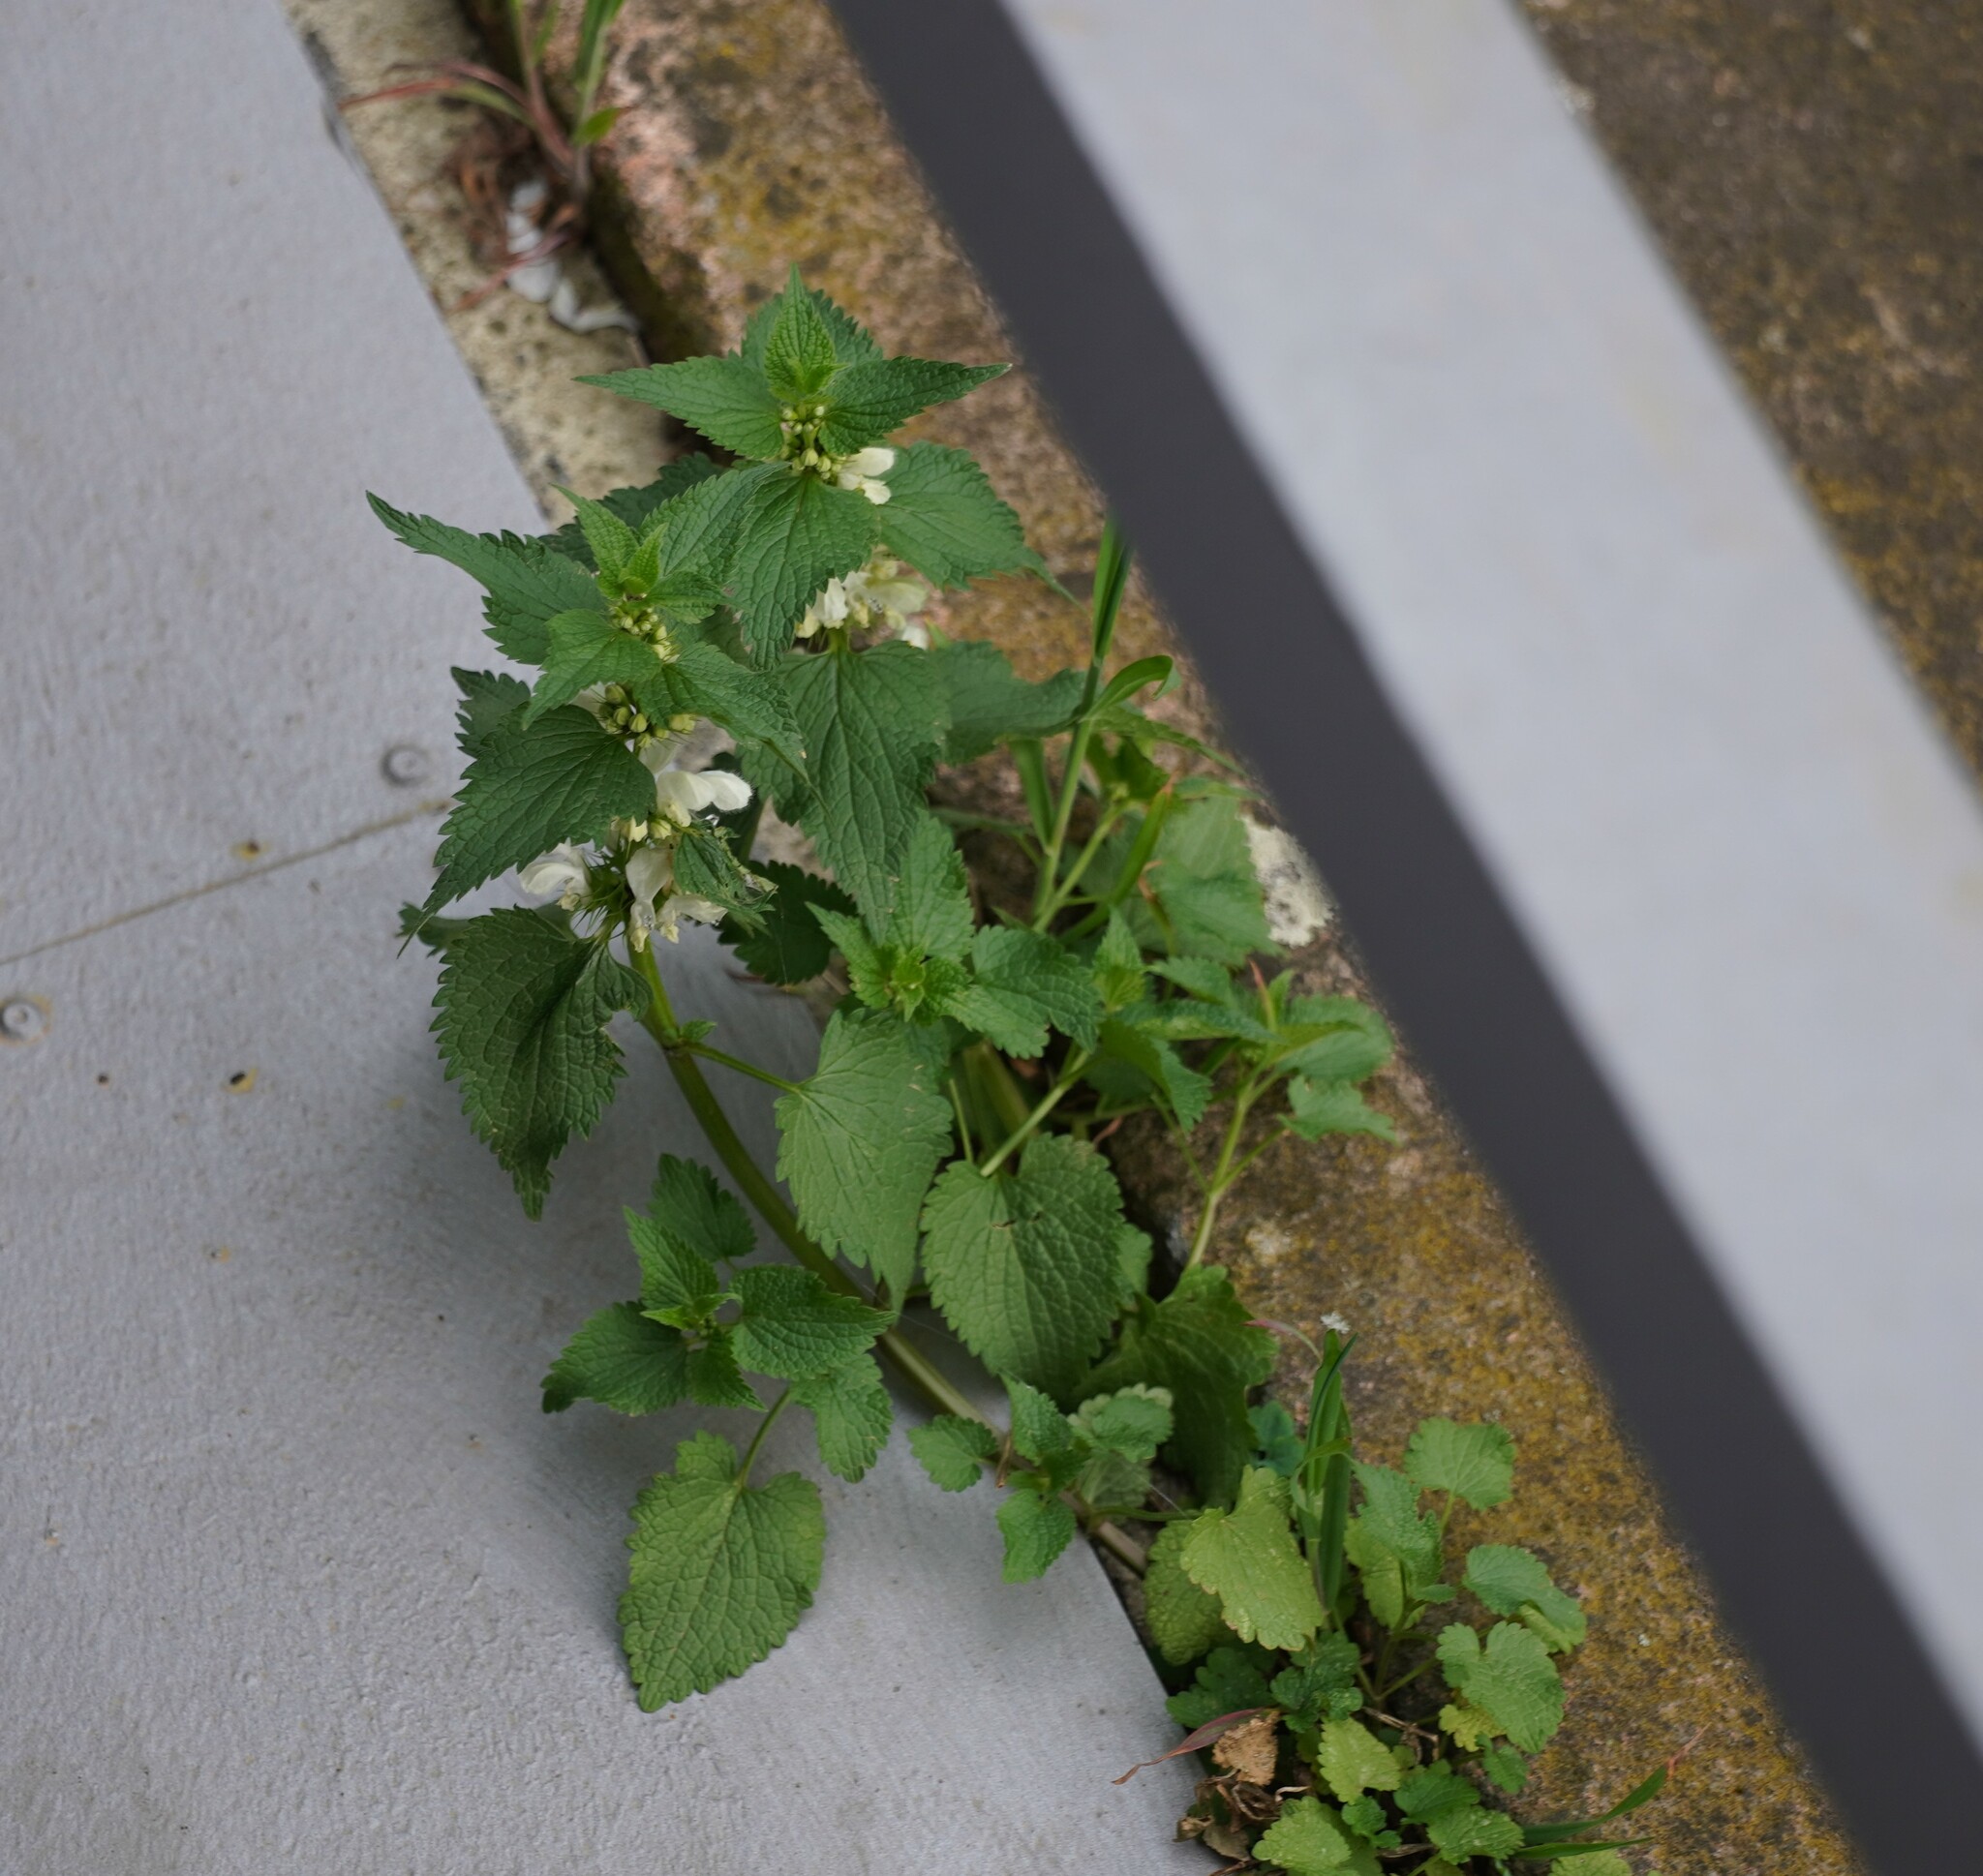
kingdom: Plantae
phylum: Tracheophyta
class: Magnoliopsida
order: Lamiales
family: Lamiaceae
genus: Lamium
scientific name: Lamium album
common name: White dead-nettle
